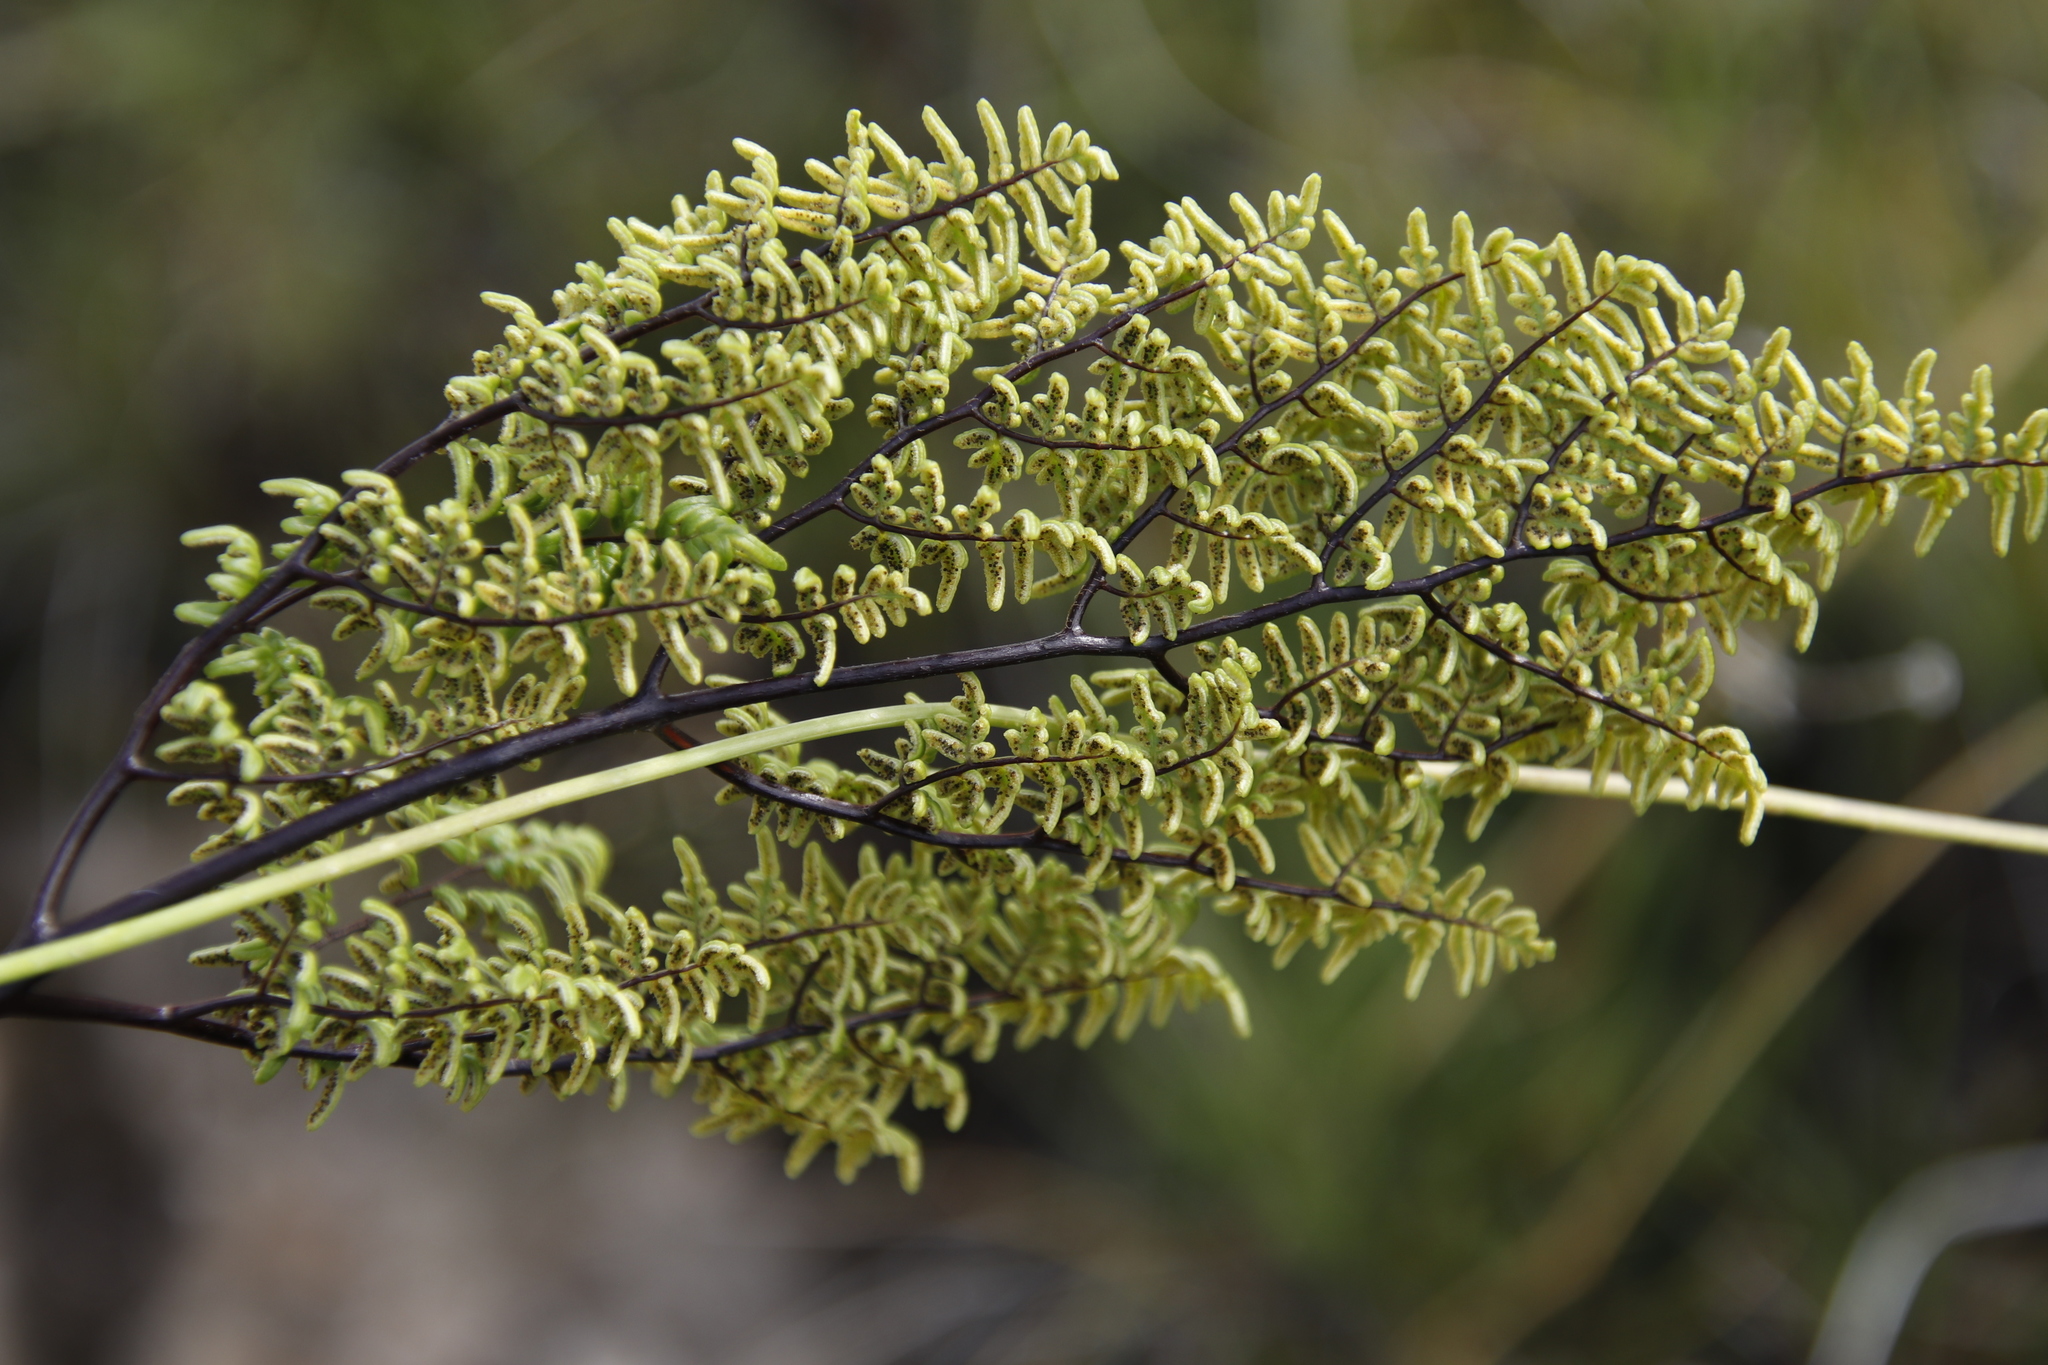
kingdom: Plantae
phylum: Tracheophyta
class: Polypodiopsida
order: Polypodiales
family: Pteridaceae
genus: Cheilanthes
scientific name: Cheilanthes quadripinnata
